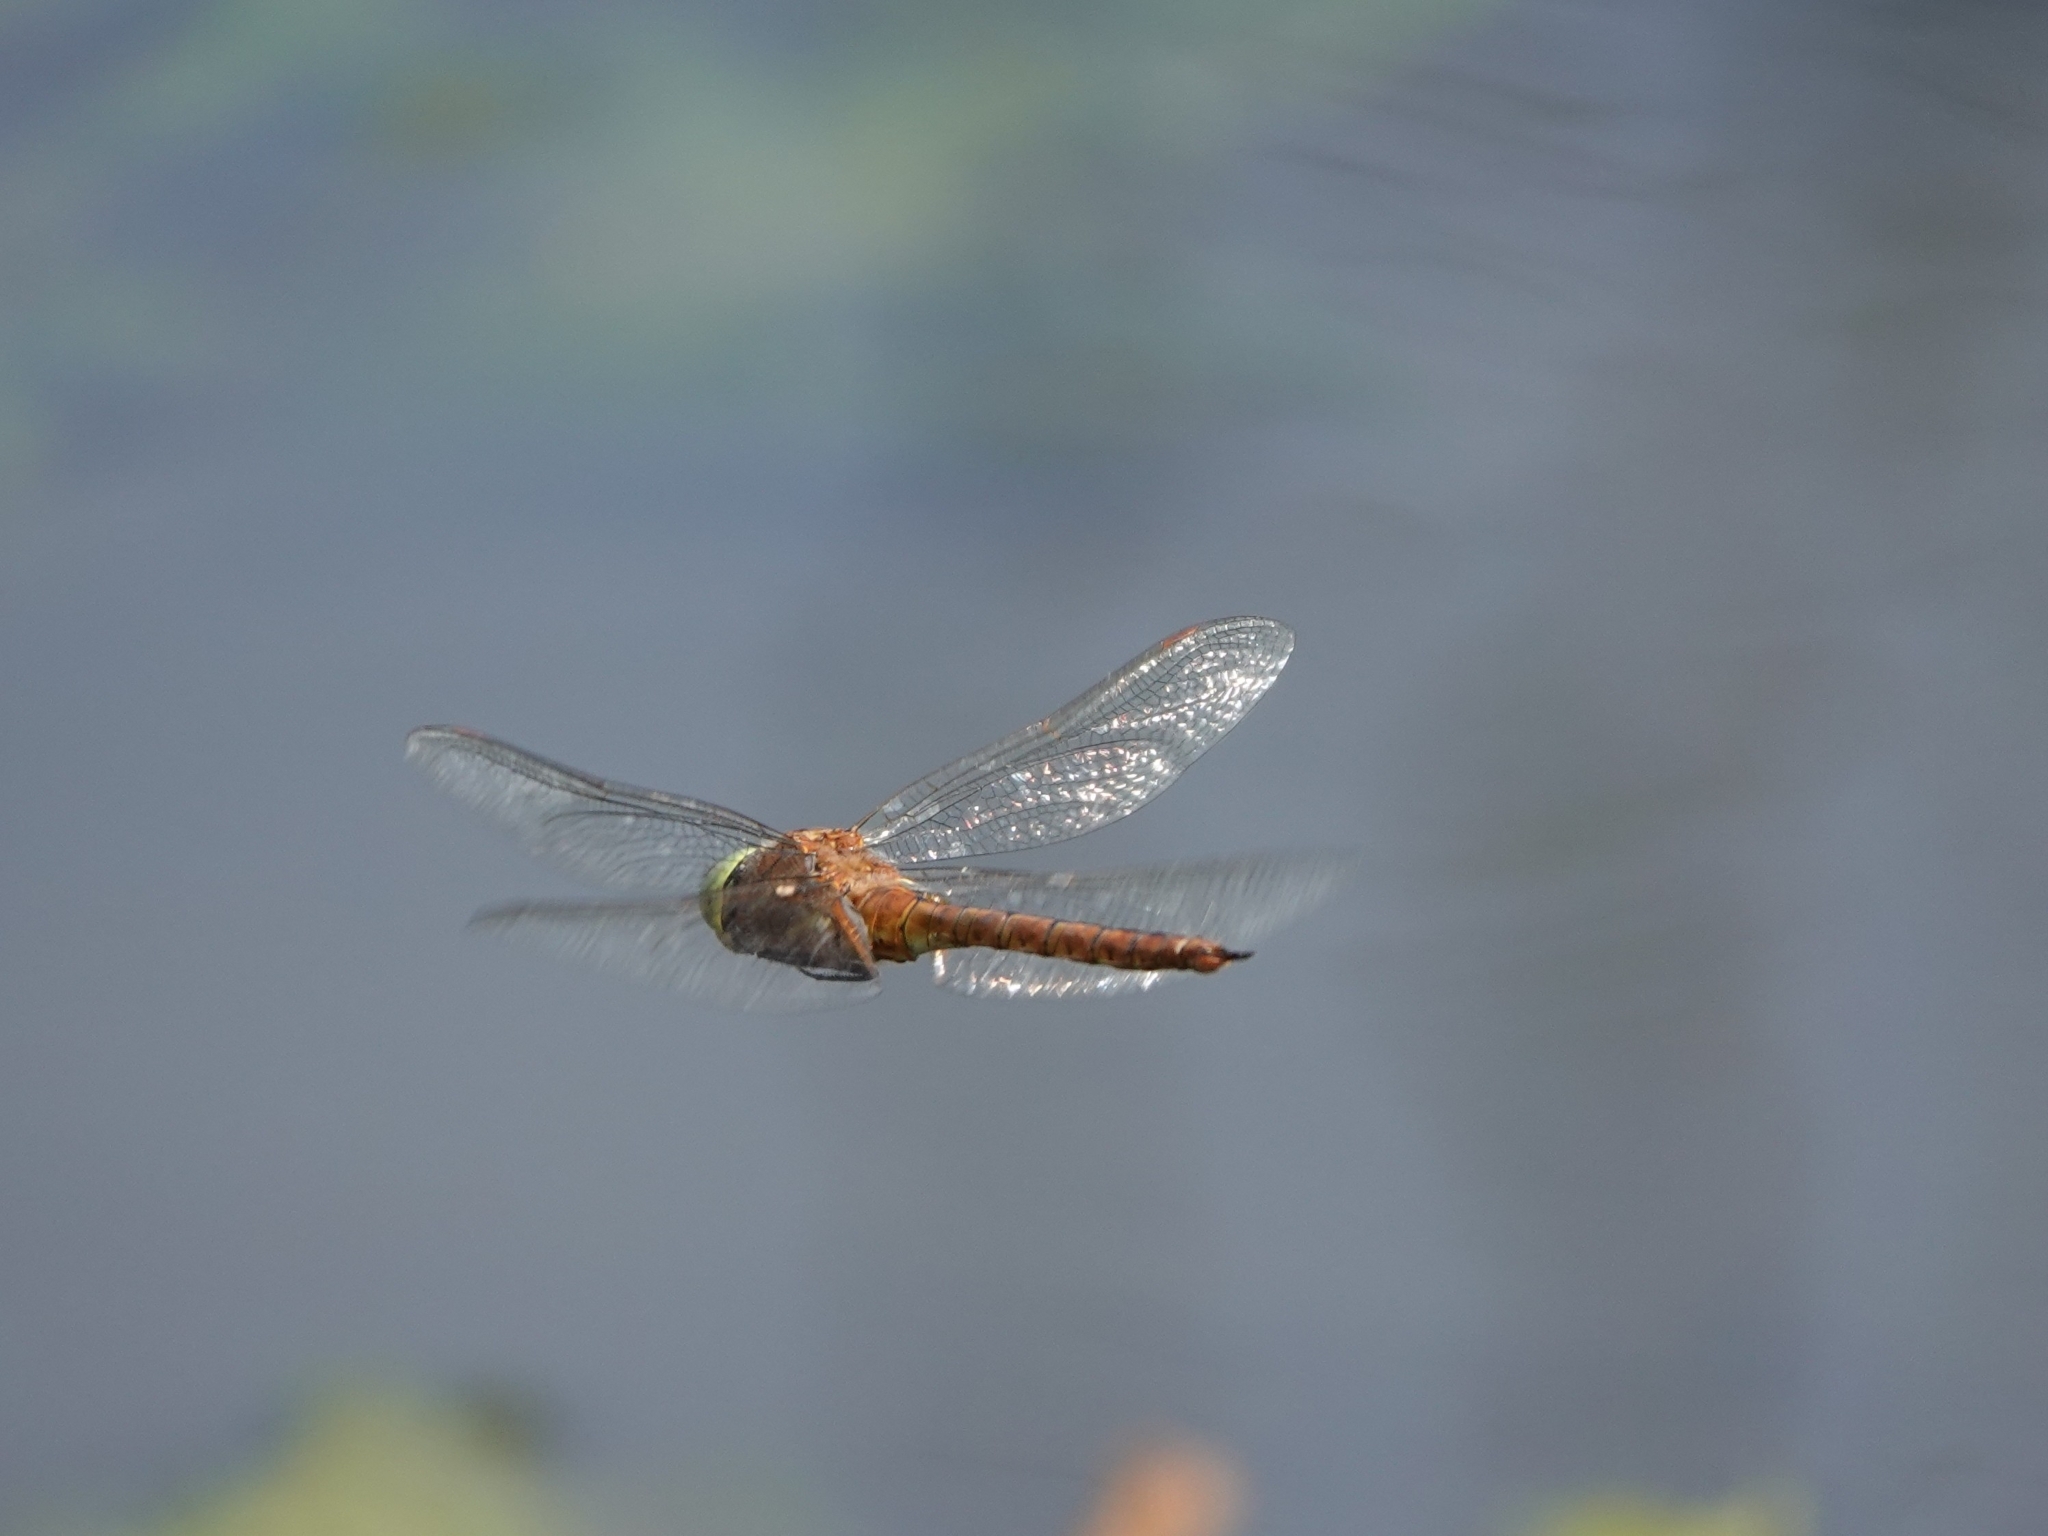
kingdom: Animalia
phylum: Arthropoda
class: Insecta
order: Odonata
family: Aeshnidae
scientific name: Aeshnidae
